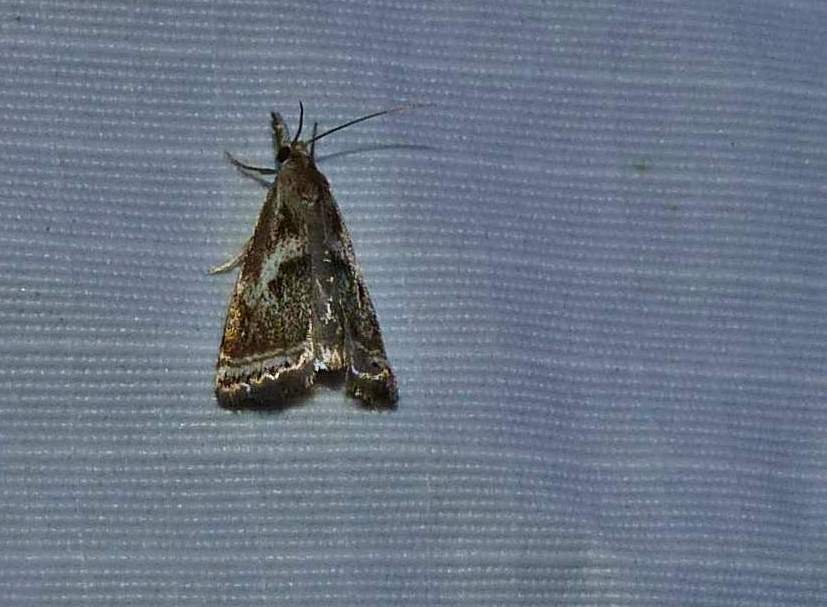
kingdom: Animalia
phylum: Arthropoda
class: Insecta
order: Lepidoptera
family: Crambidae
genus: Microcrambus
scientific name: Microcrambus elegans
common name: Elegant grass-veneer
